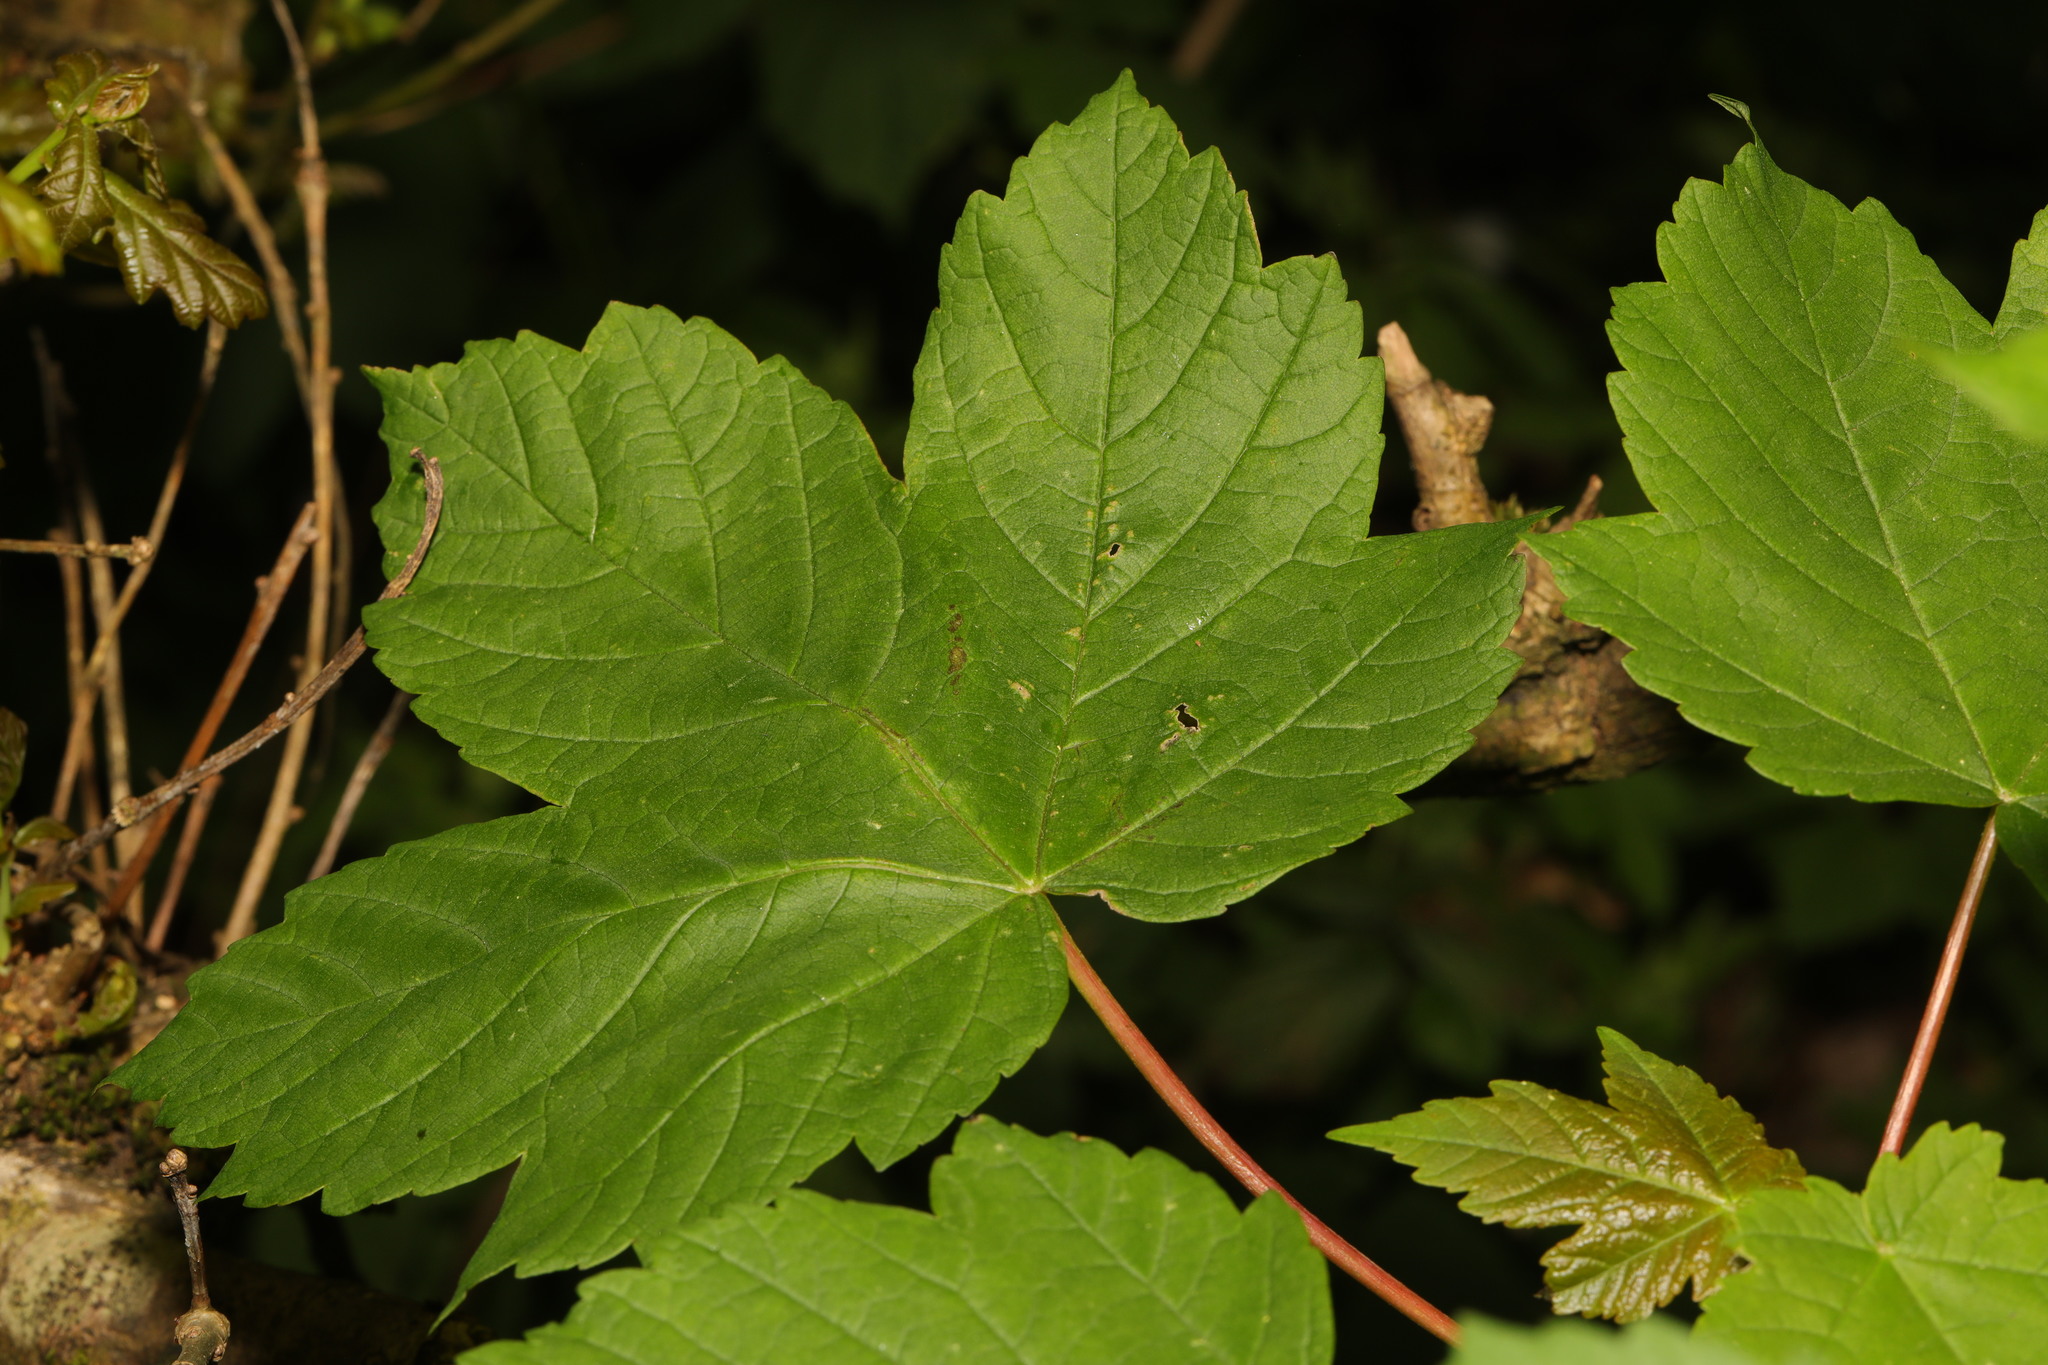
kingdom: Plantae
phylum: Tracheophyta
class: Magnoliopsida
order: Sapindales
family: Sapindaceae
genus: Acer
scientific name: Acer pseudoplatanus
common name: Sycamore
